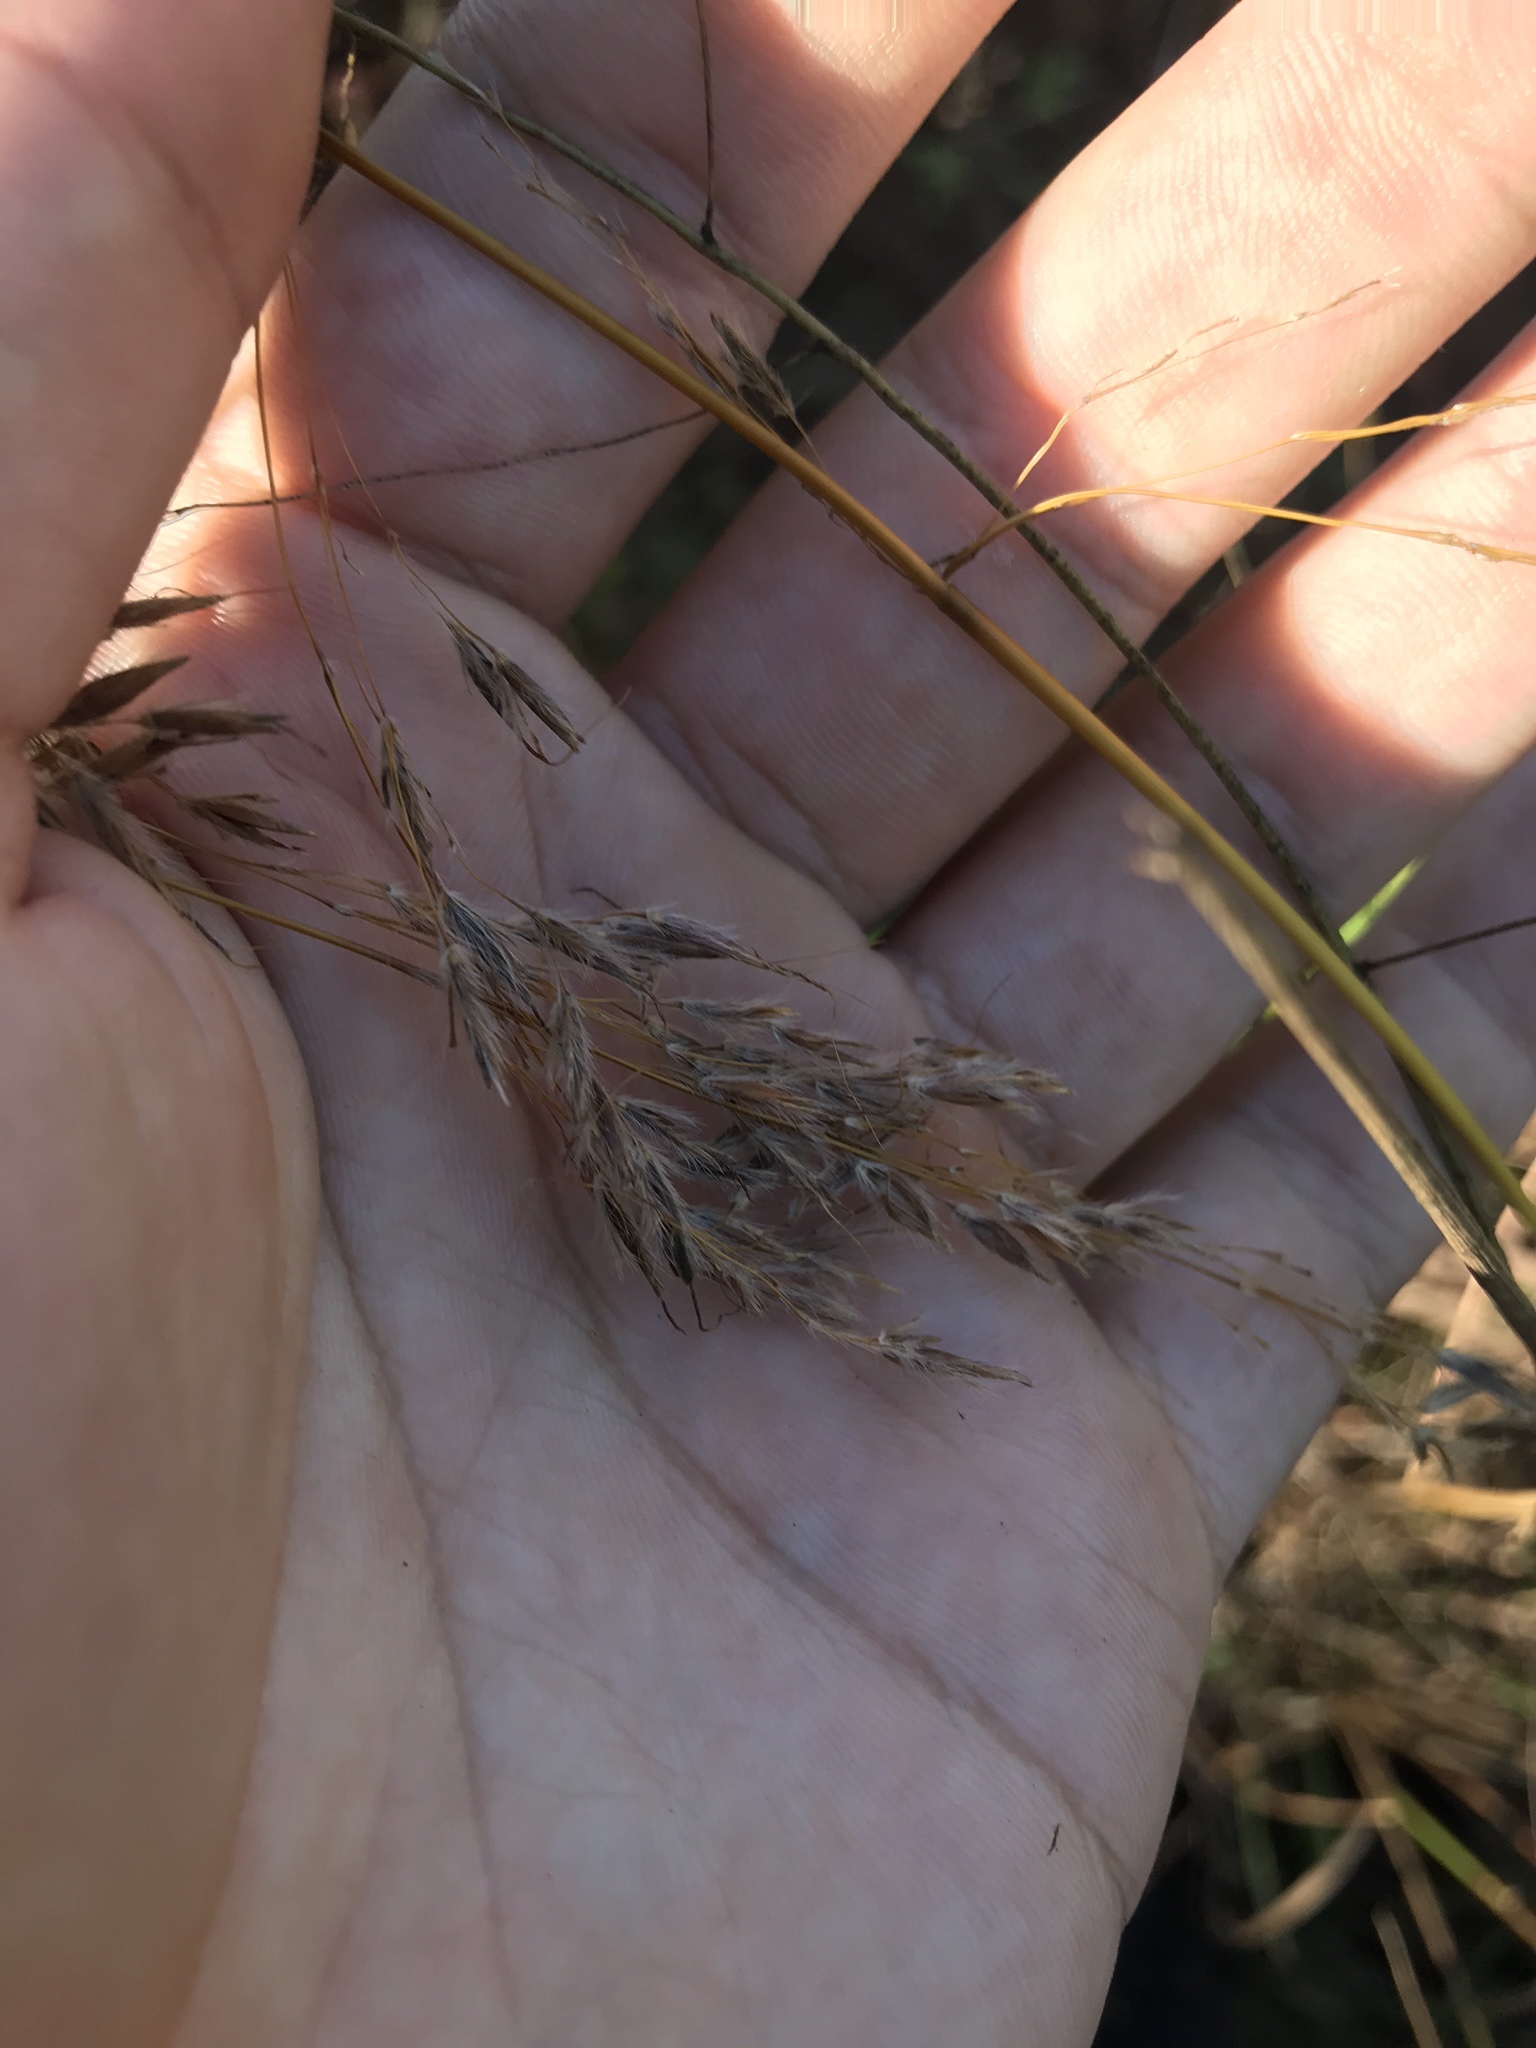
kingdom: Plantae
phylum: Tracheophyta
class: Liliopsida
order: Poales
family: Poaceae
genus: Sorghastrum
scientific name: Sorghastrum nutans
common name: Indian grass
